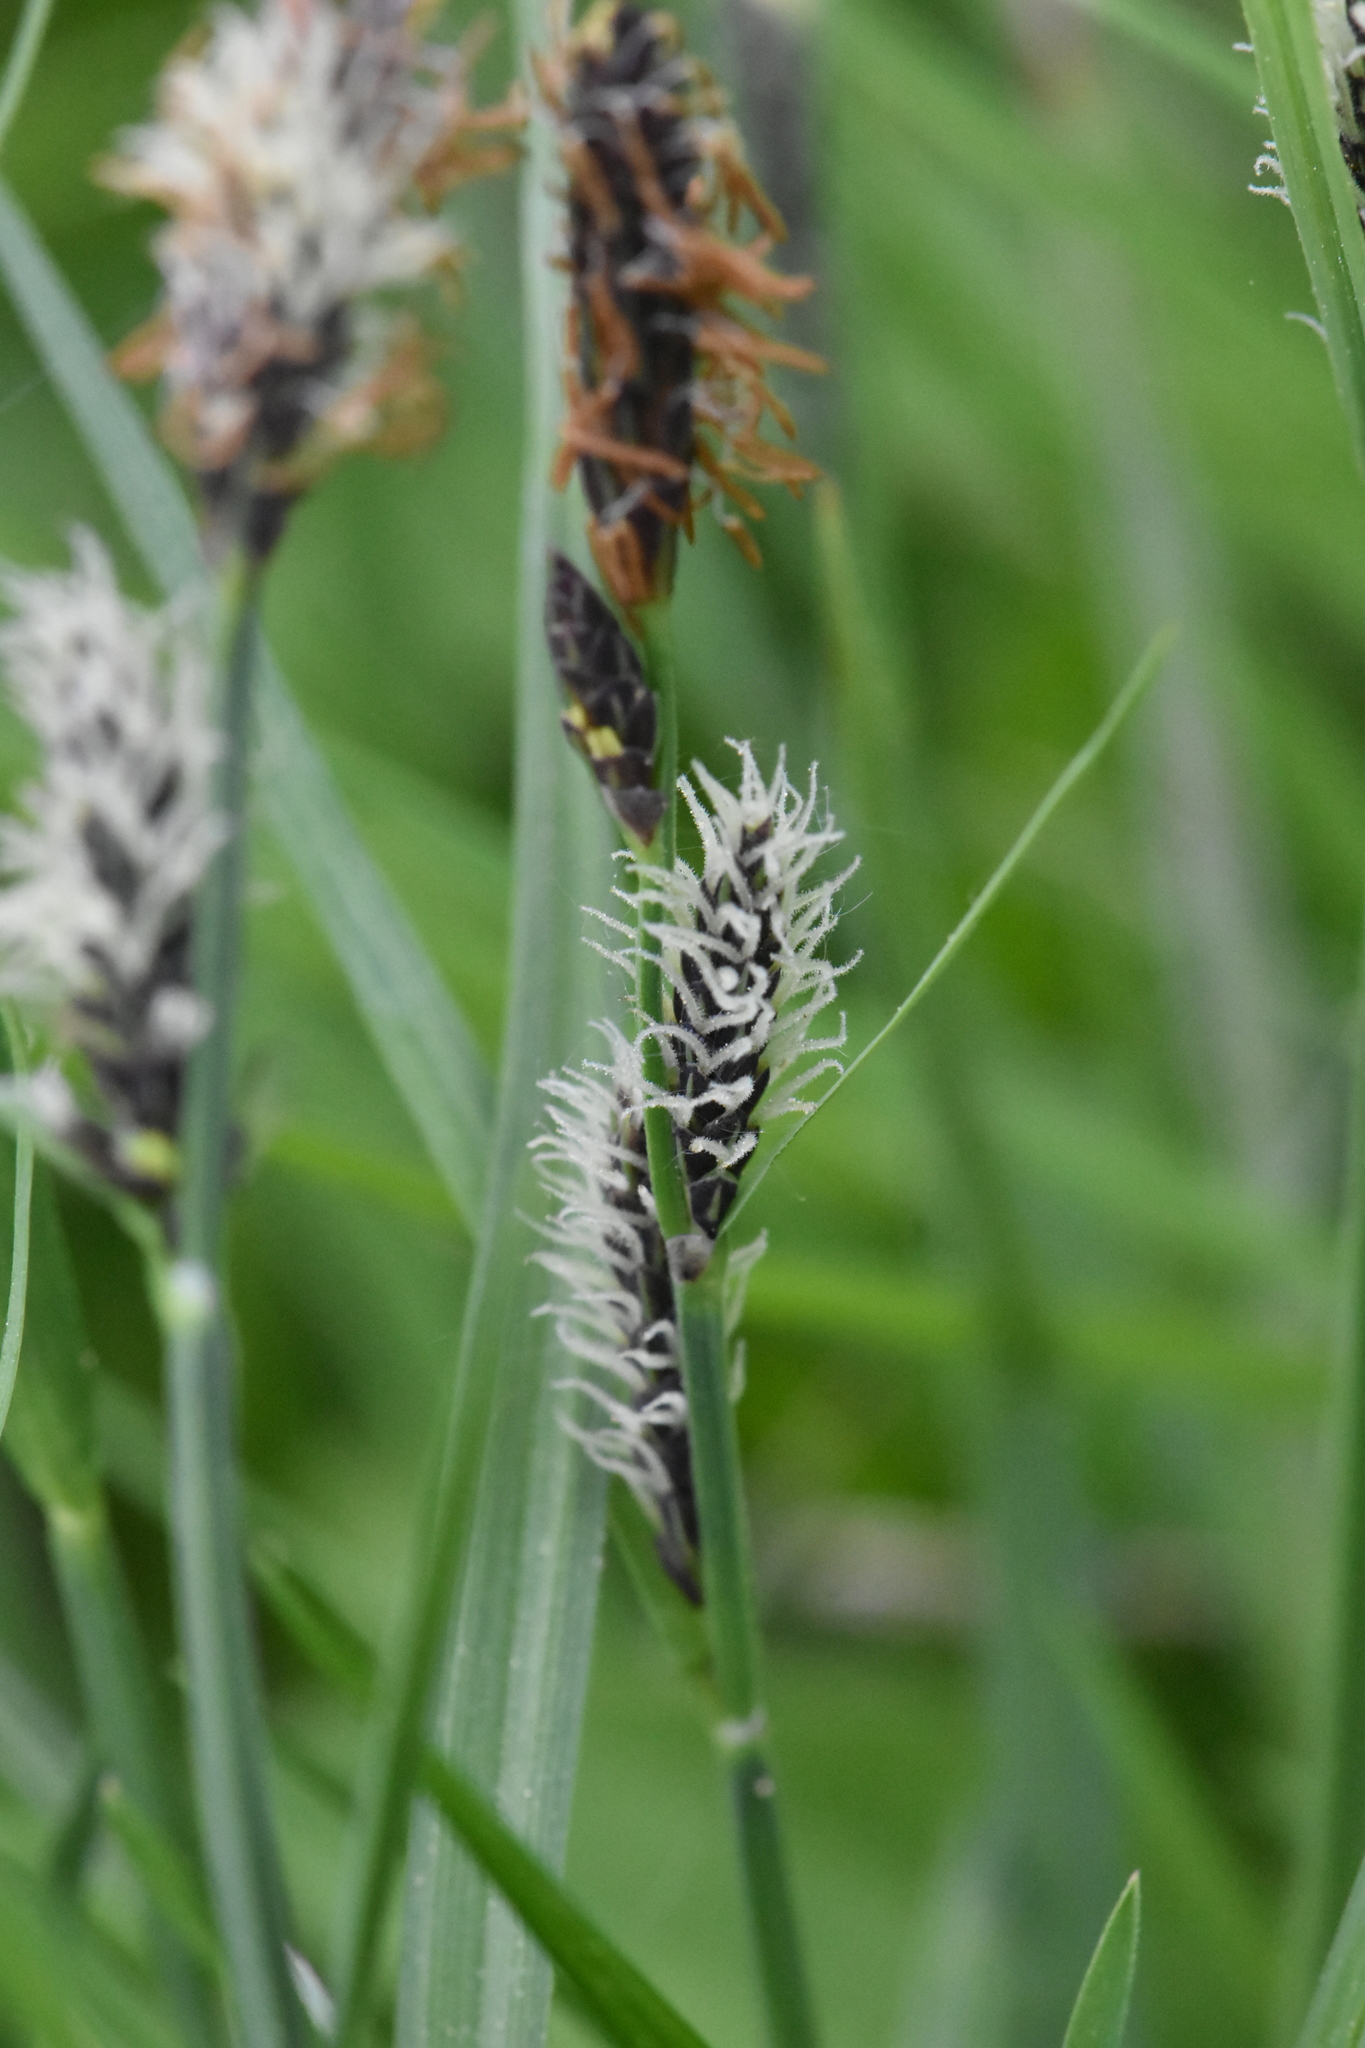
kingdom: Plantae
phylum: Tracheophyta
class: Liliopsida
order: Poales
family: Cyperaceae
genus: Carex
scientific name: Carex nigra
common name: Common sedge
